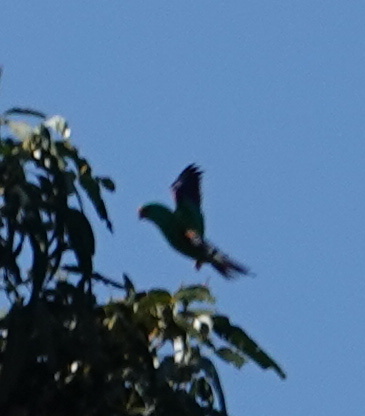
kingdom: Animalia
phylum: Chordata
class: Aves
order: Psittaciformes
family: Psittacidae
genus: Lathamus
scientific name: Lathamus discolor
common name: Swift parrot
